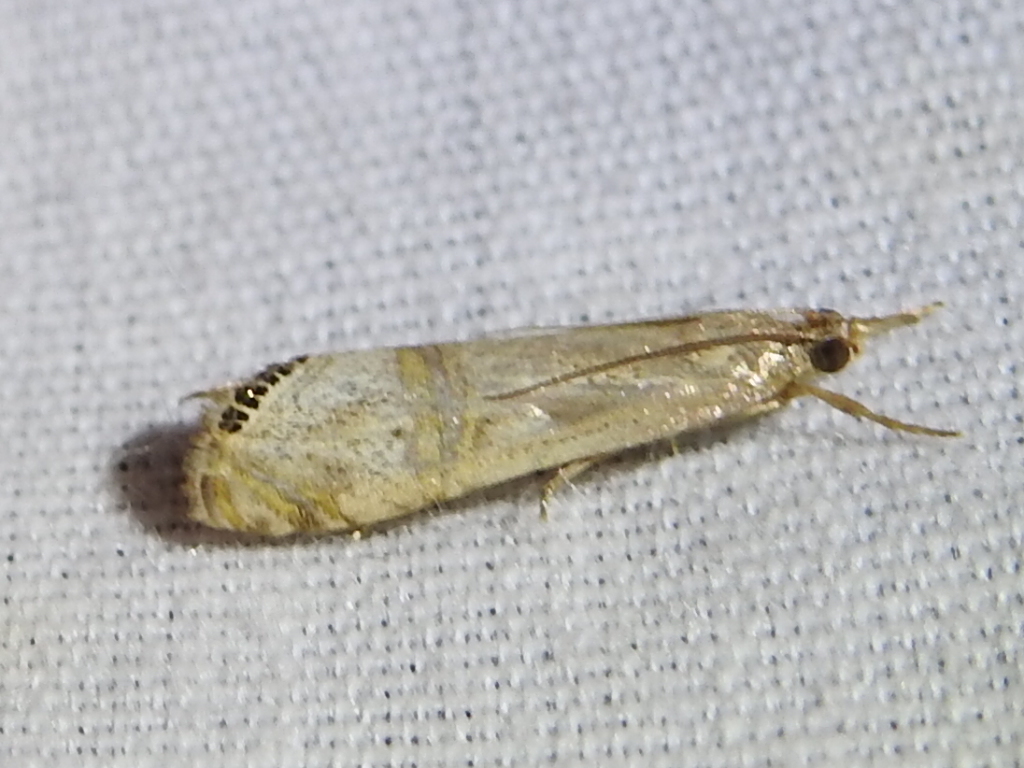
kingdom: Animalia
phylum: Arthropoda
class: Insecta
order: Lepidoptera
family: Crambidae
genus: Euchromius
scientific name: Euchromius ocellea
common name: Necklace veneer moth
